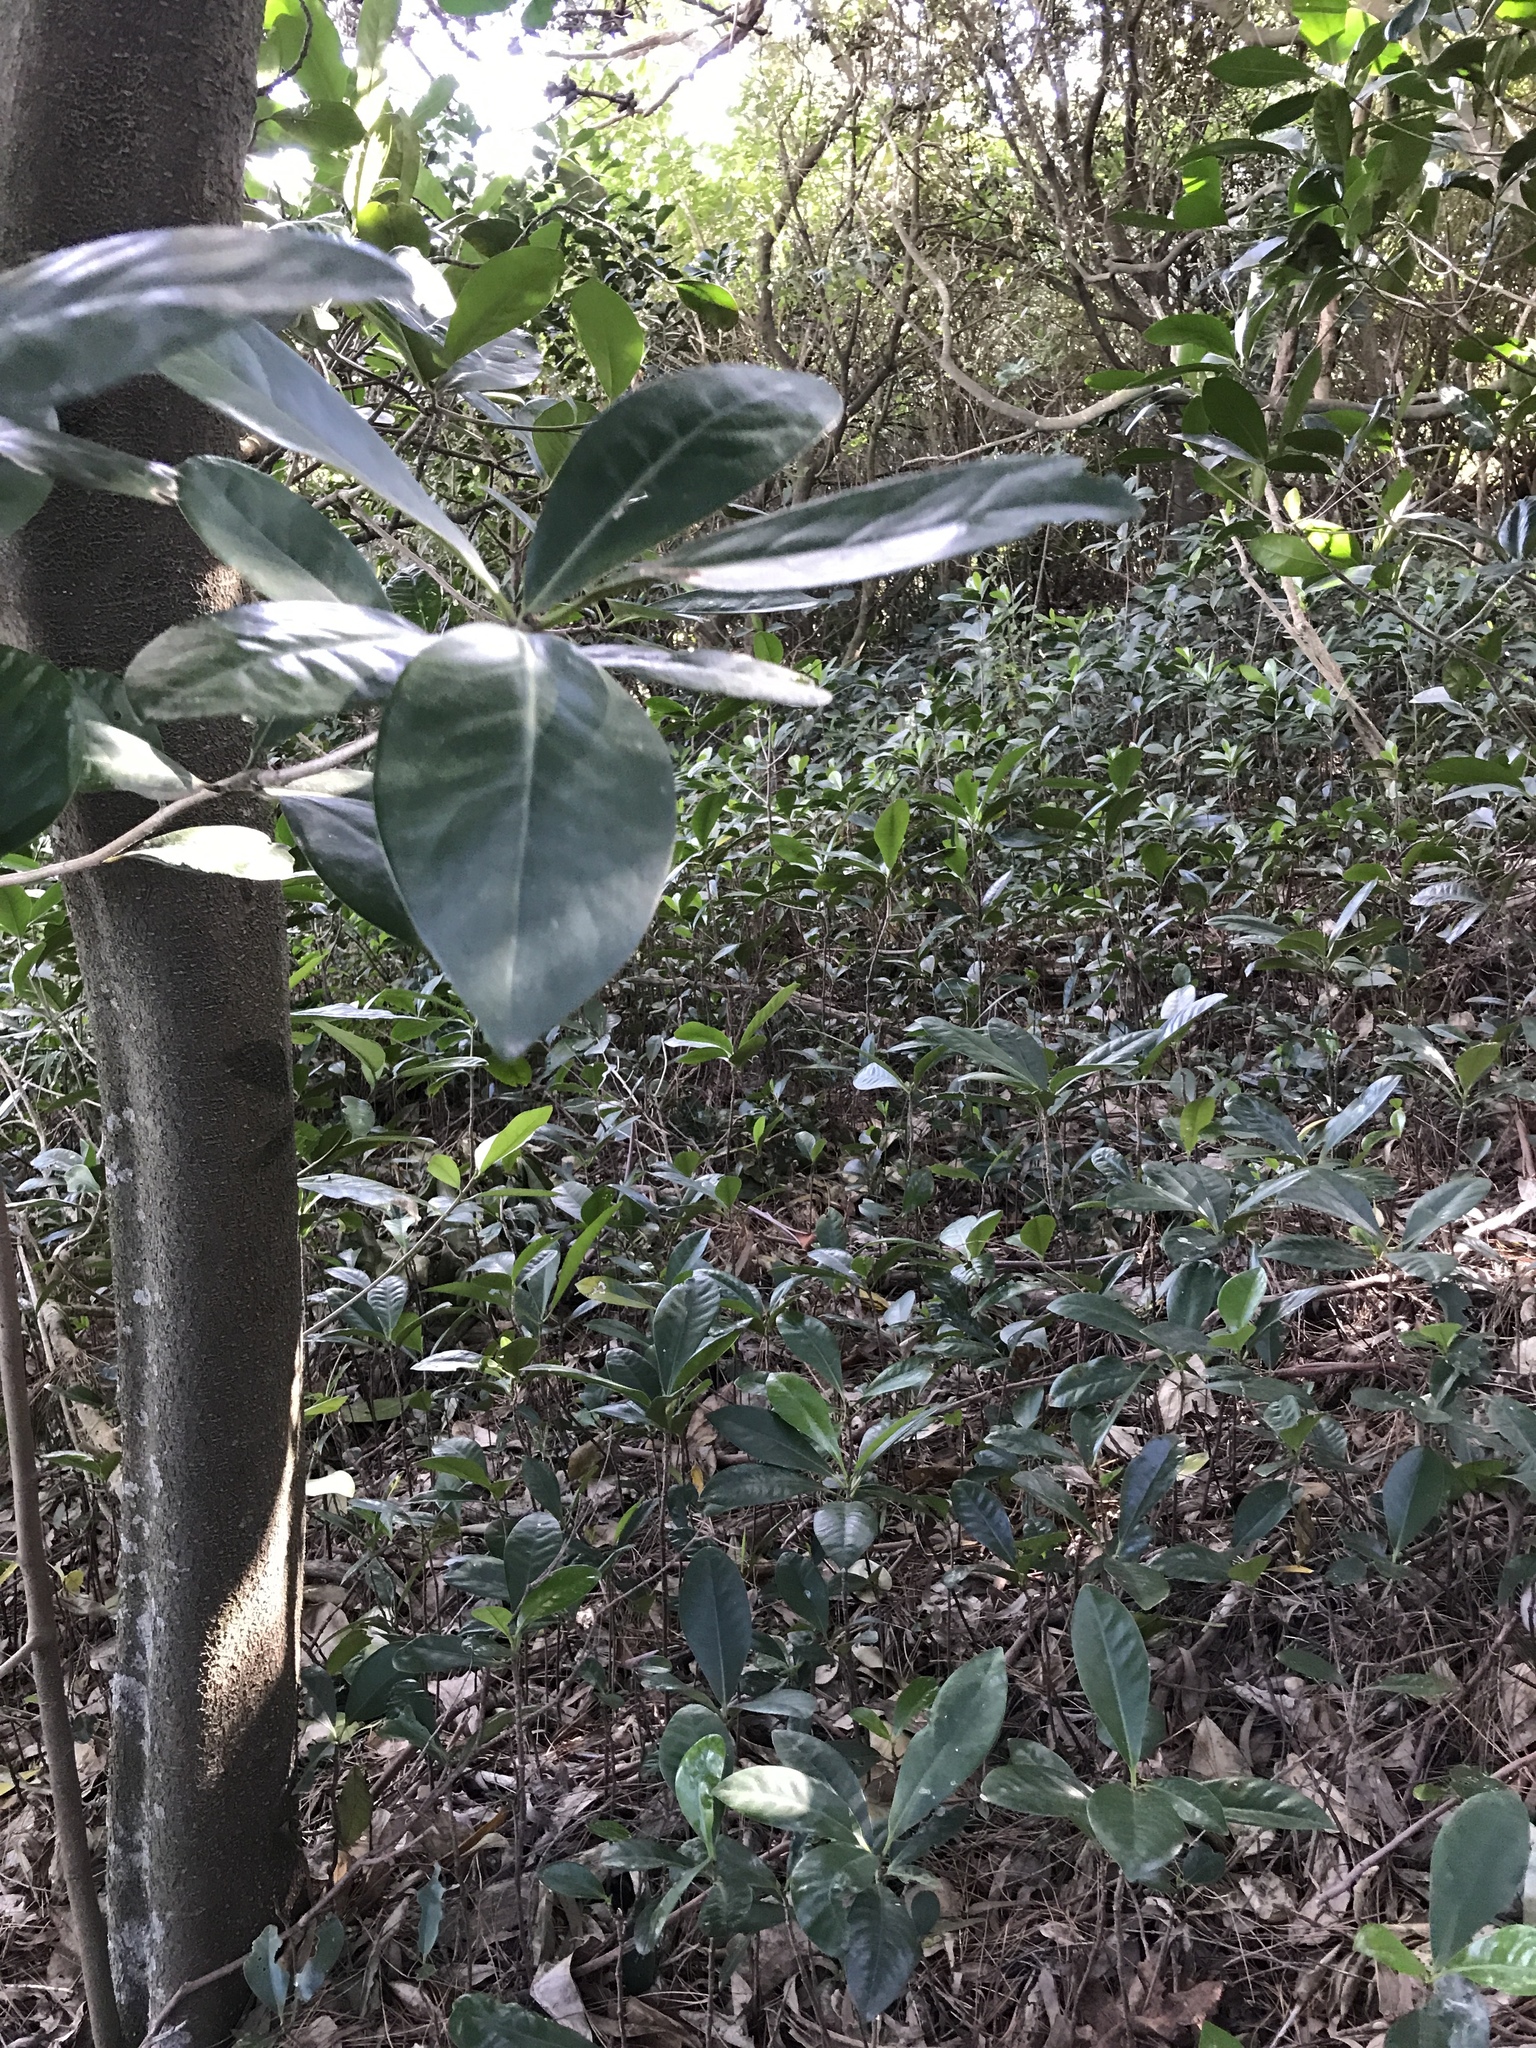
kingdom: Plantae
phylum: Tracheophyta
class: Magnoliopsida
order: Cucurbitales
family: Corynocarpaceae
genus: Corynocarpus
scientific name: Corynocarpus laevigatus
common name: New zealand laurel
